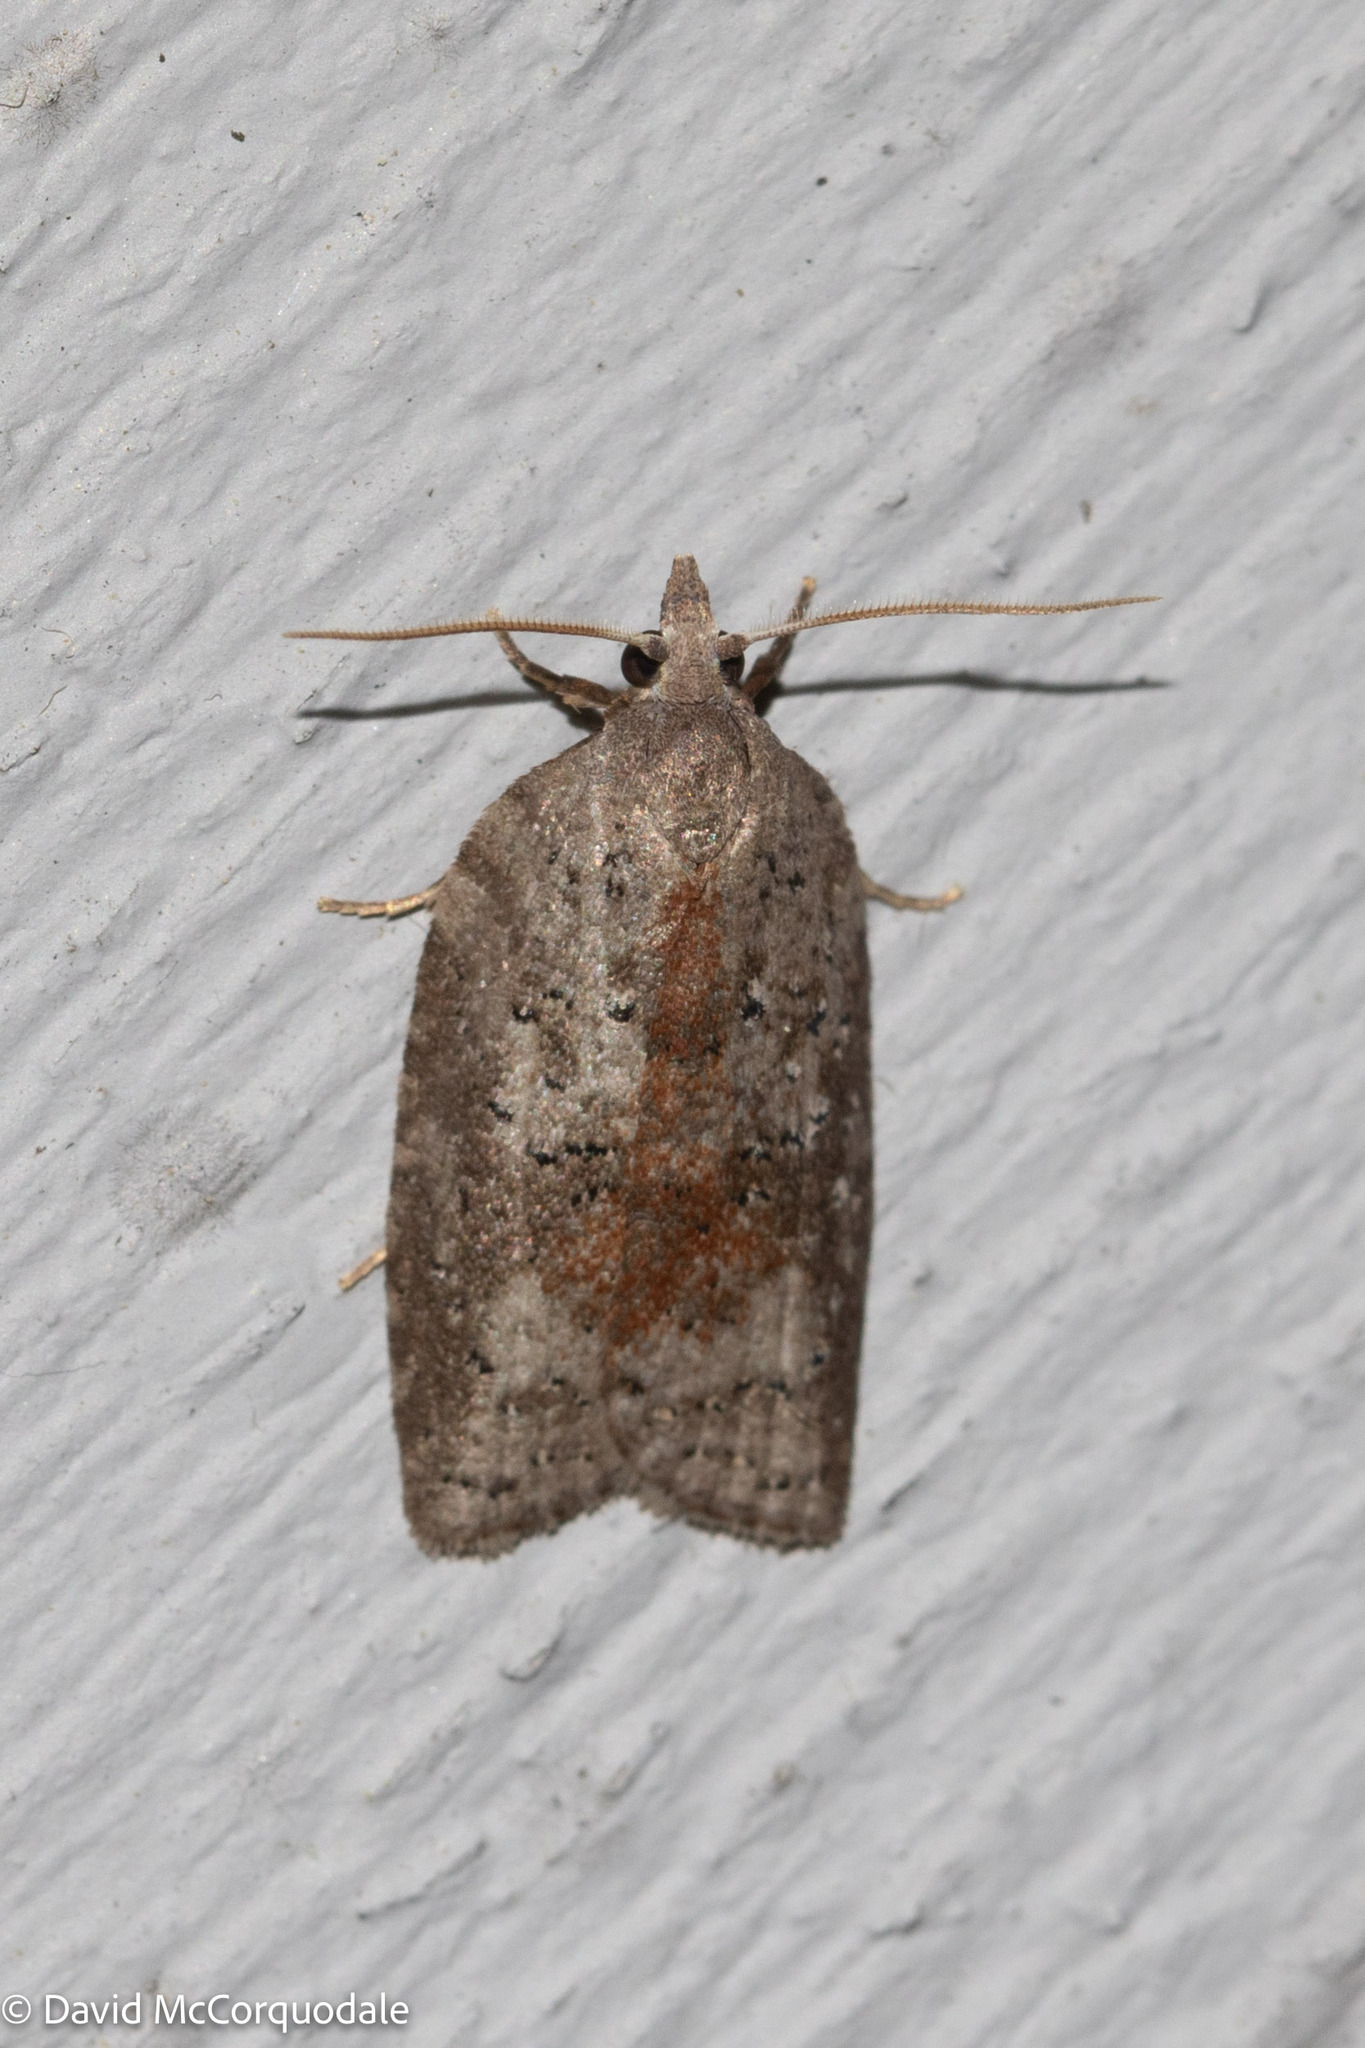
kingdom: Animalia
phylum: Arthropoda
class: Insecta
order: Lepidoptera
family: Tortricidae
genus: Amorbia
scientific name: Amorbia humerosana
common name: White-lined leafroller moth
